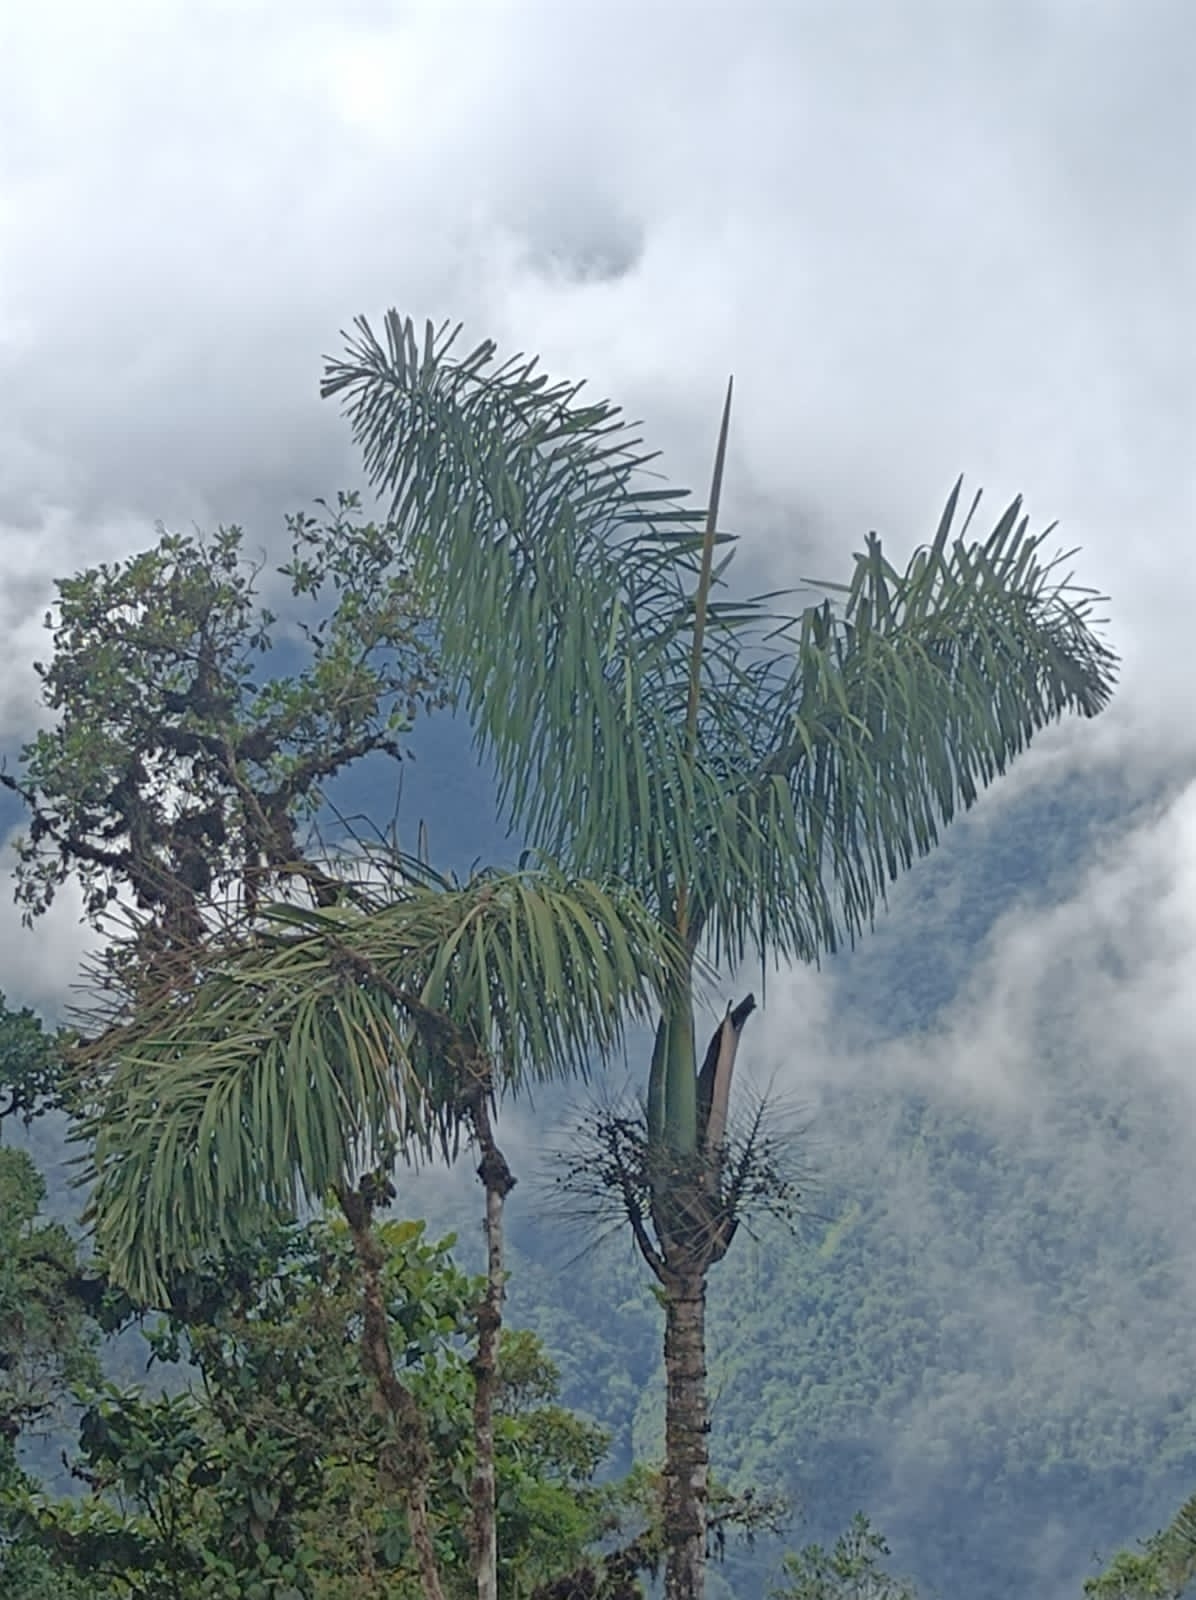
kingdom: Plantae
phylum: Tracheophyta
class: Liliopsida
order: Arecales
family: Arecaceae
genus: Dictyocaryum
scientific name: Dictyocaryum lamarckianum
